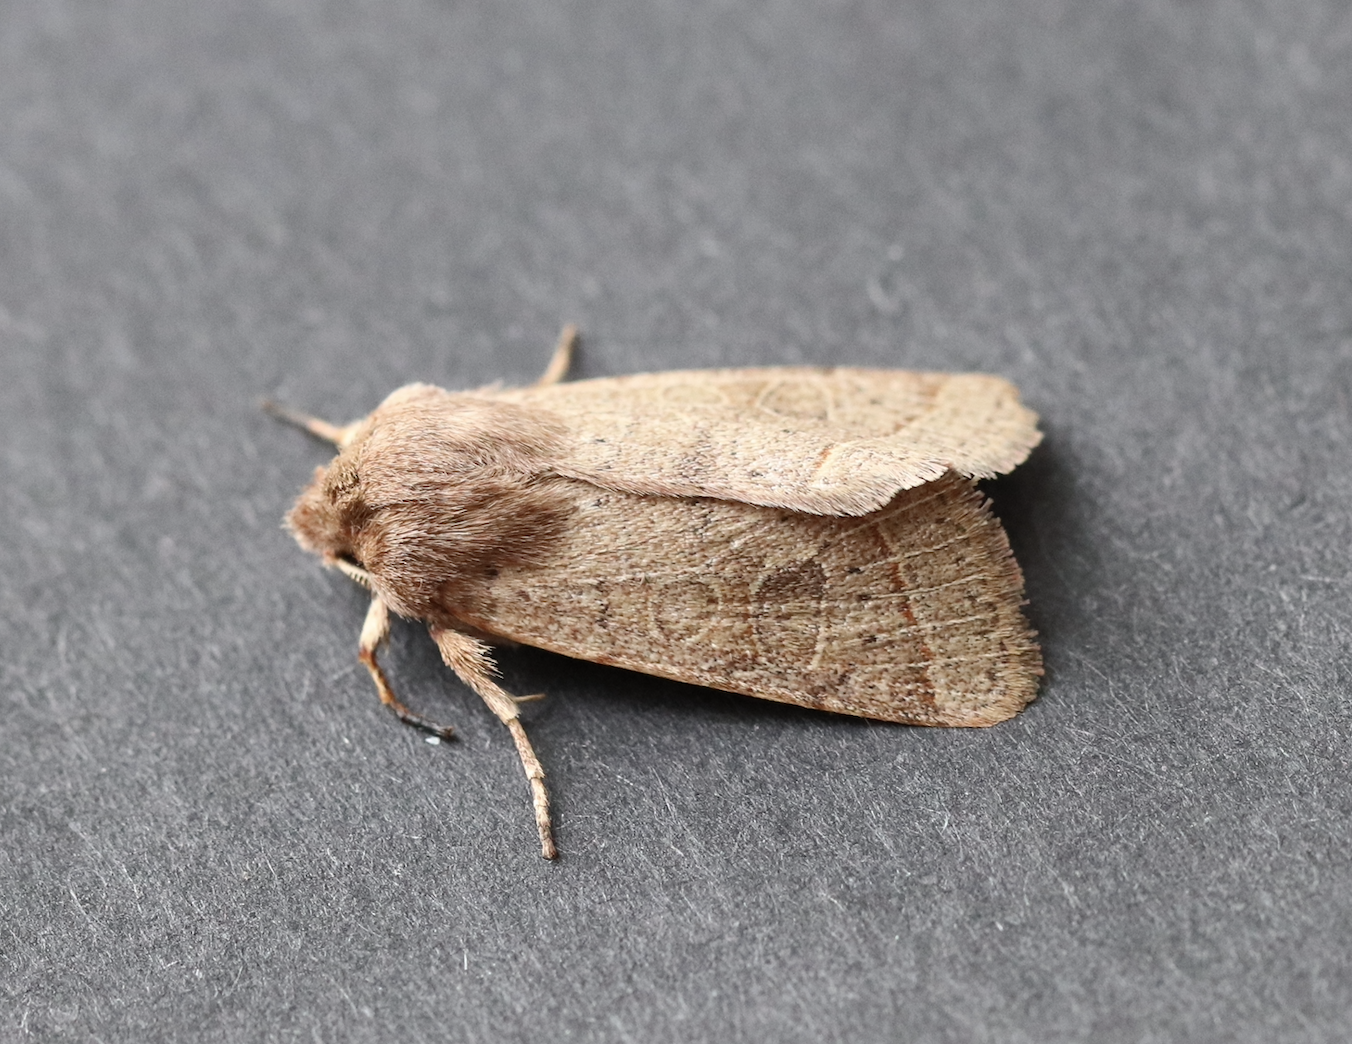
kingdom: Animalia
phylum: Arthropoda
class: Insecta
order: Lepidoptera
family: Noctuidae
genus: Orthosia
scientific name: Orthosia cerasi
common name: Common quaker
